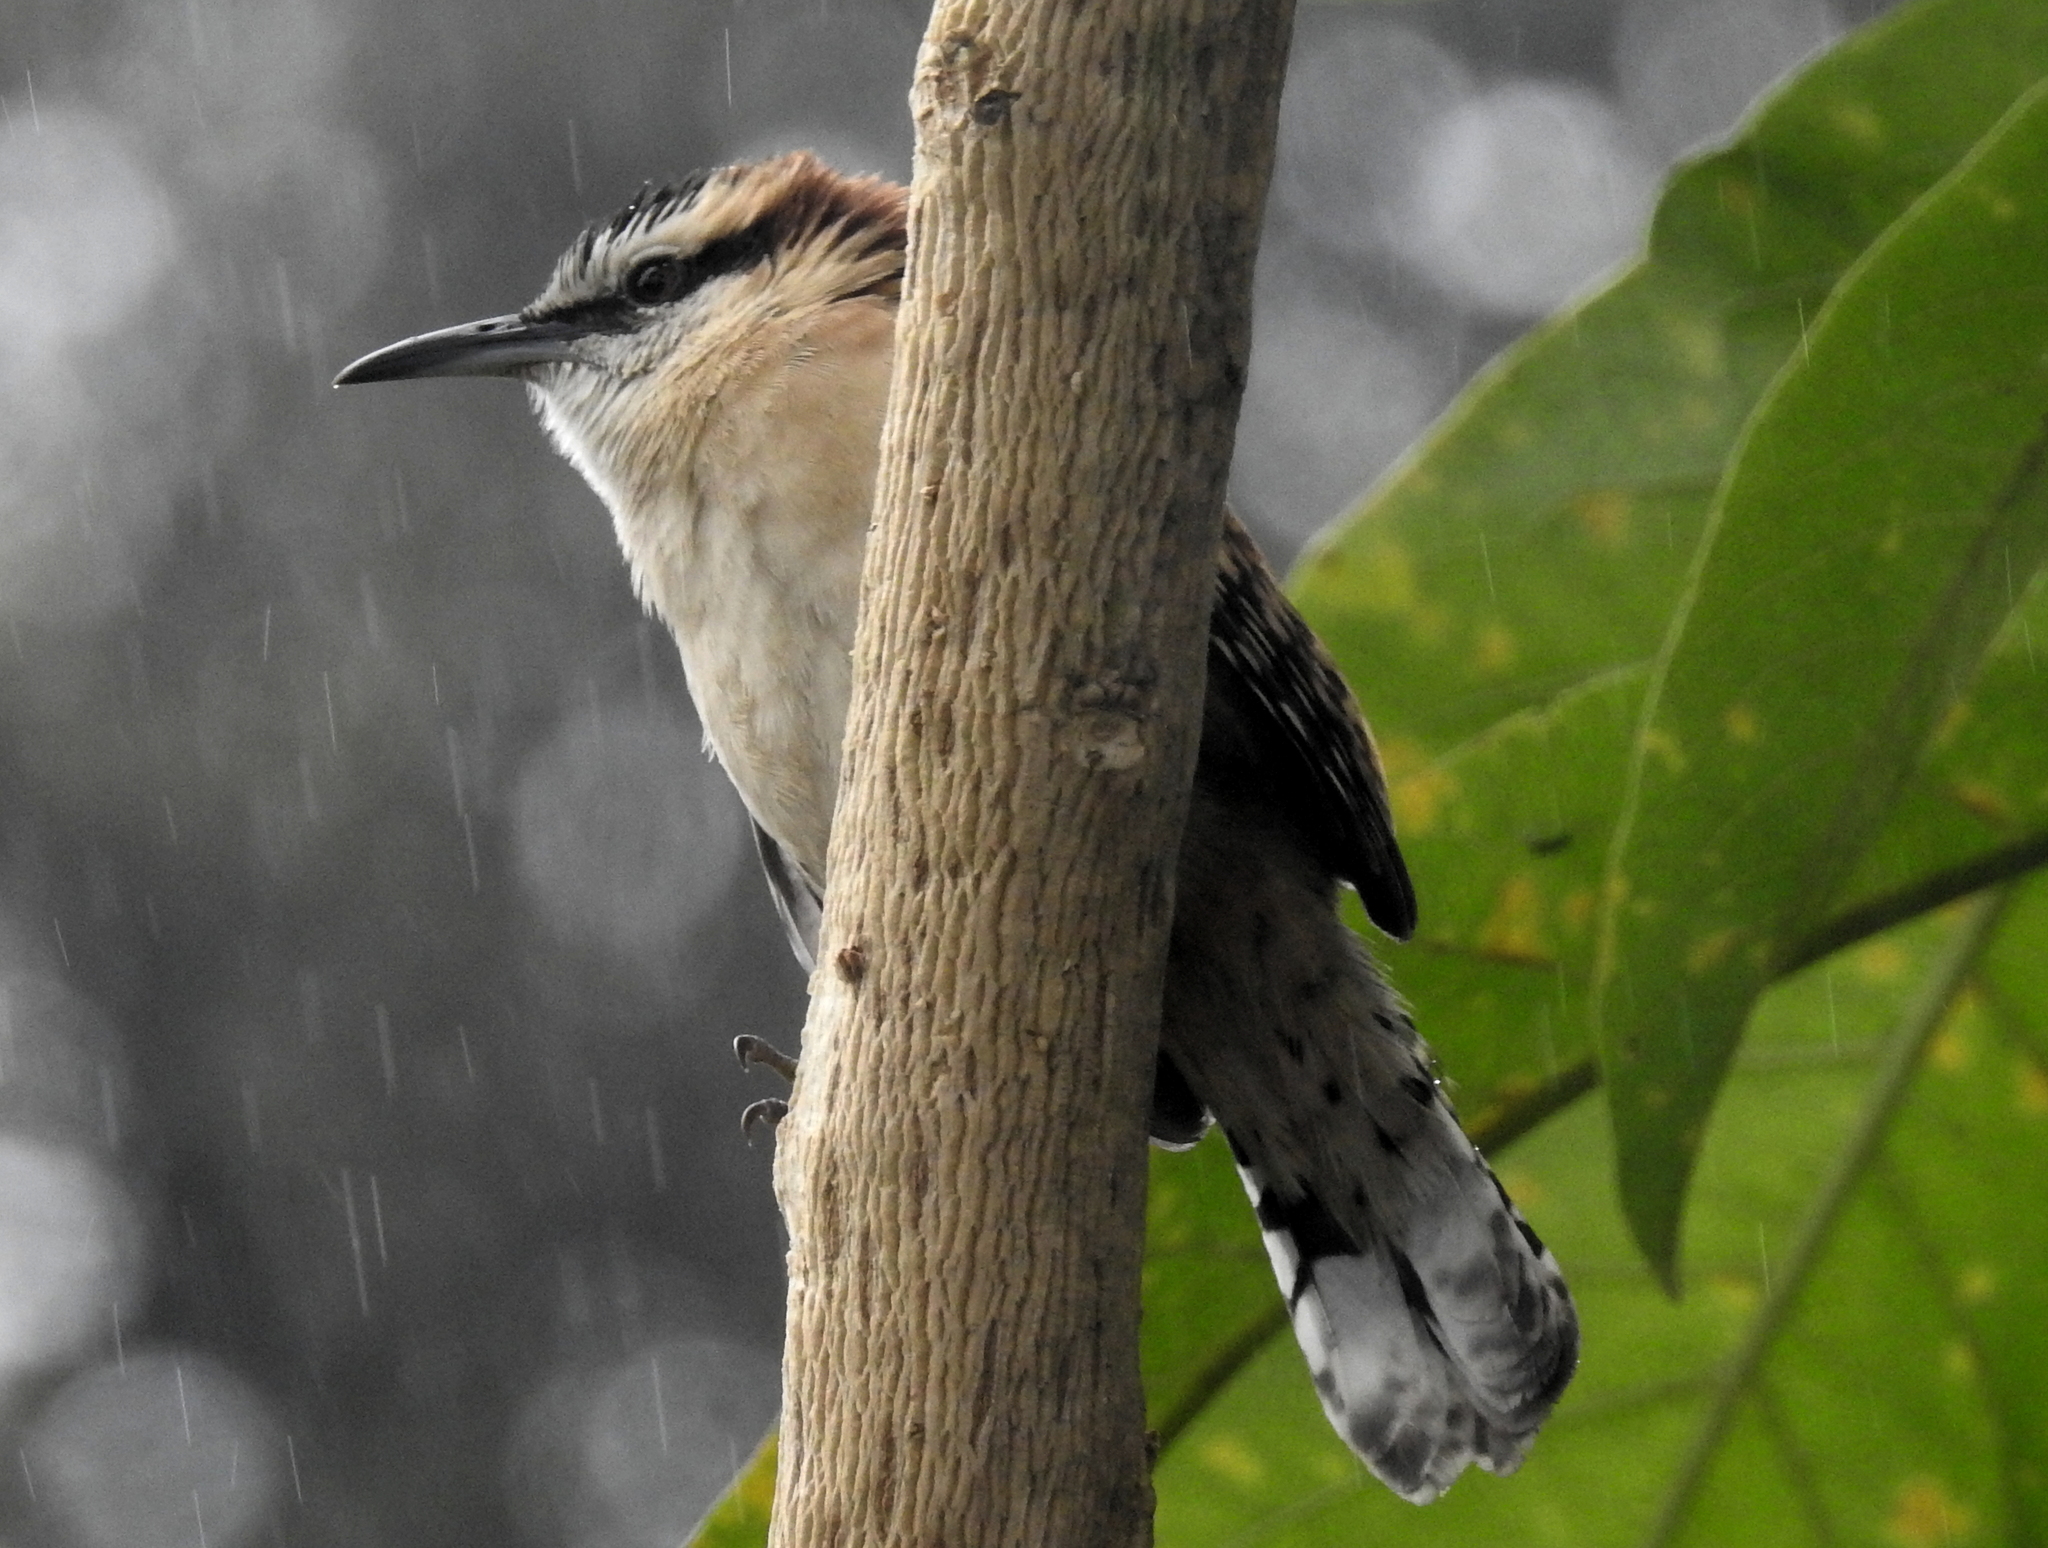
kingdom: Animalia
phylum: Chordata
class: Aves
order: Passeriformes
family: Troglodytidae
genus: Campylorhynchus
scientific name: Campylorhynchus rufinucha
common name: Rufous-naped wren
